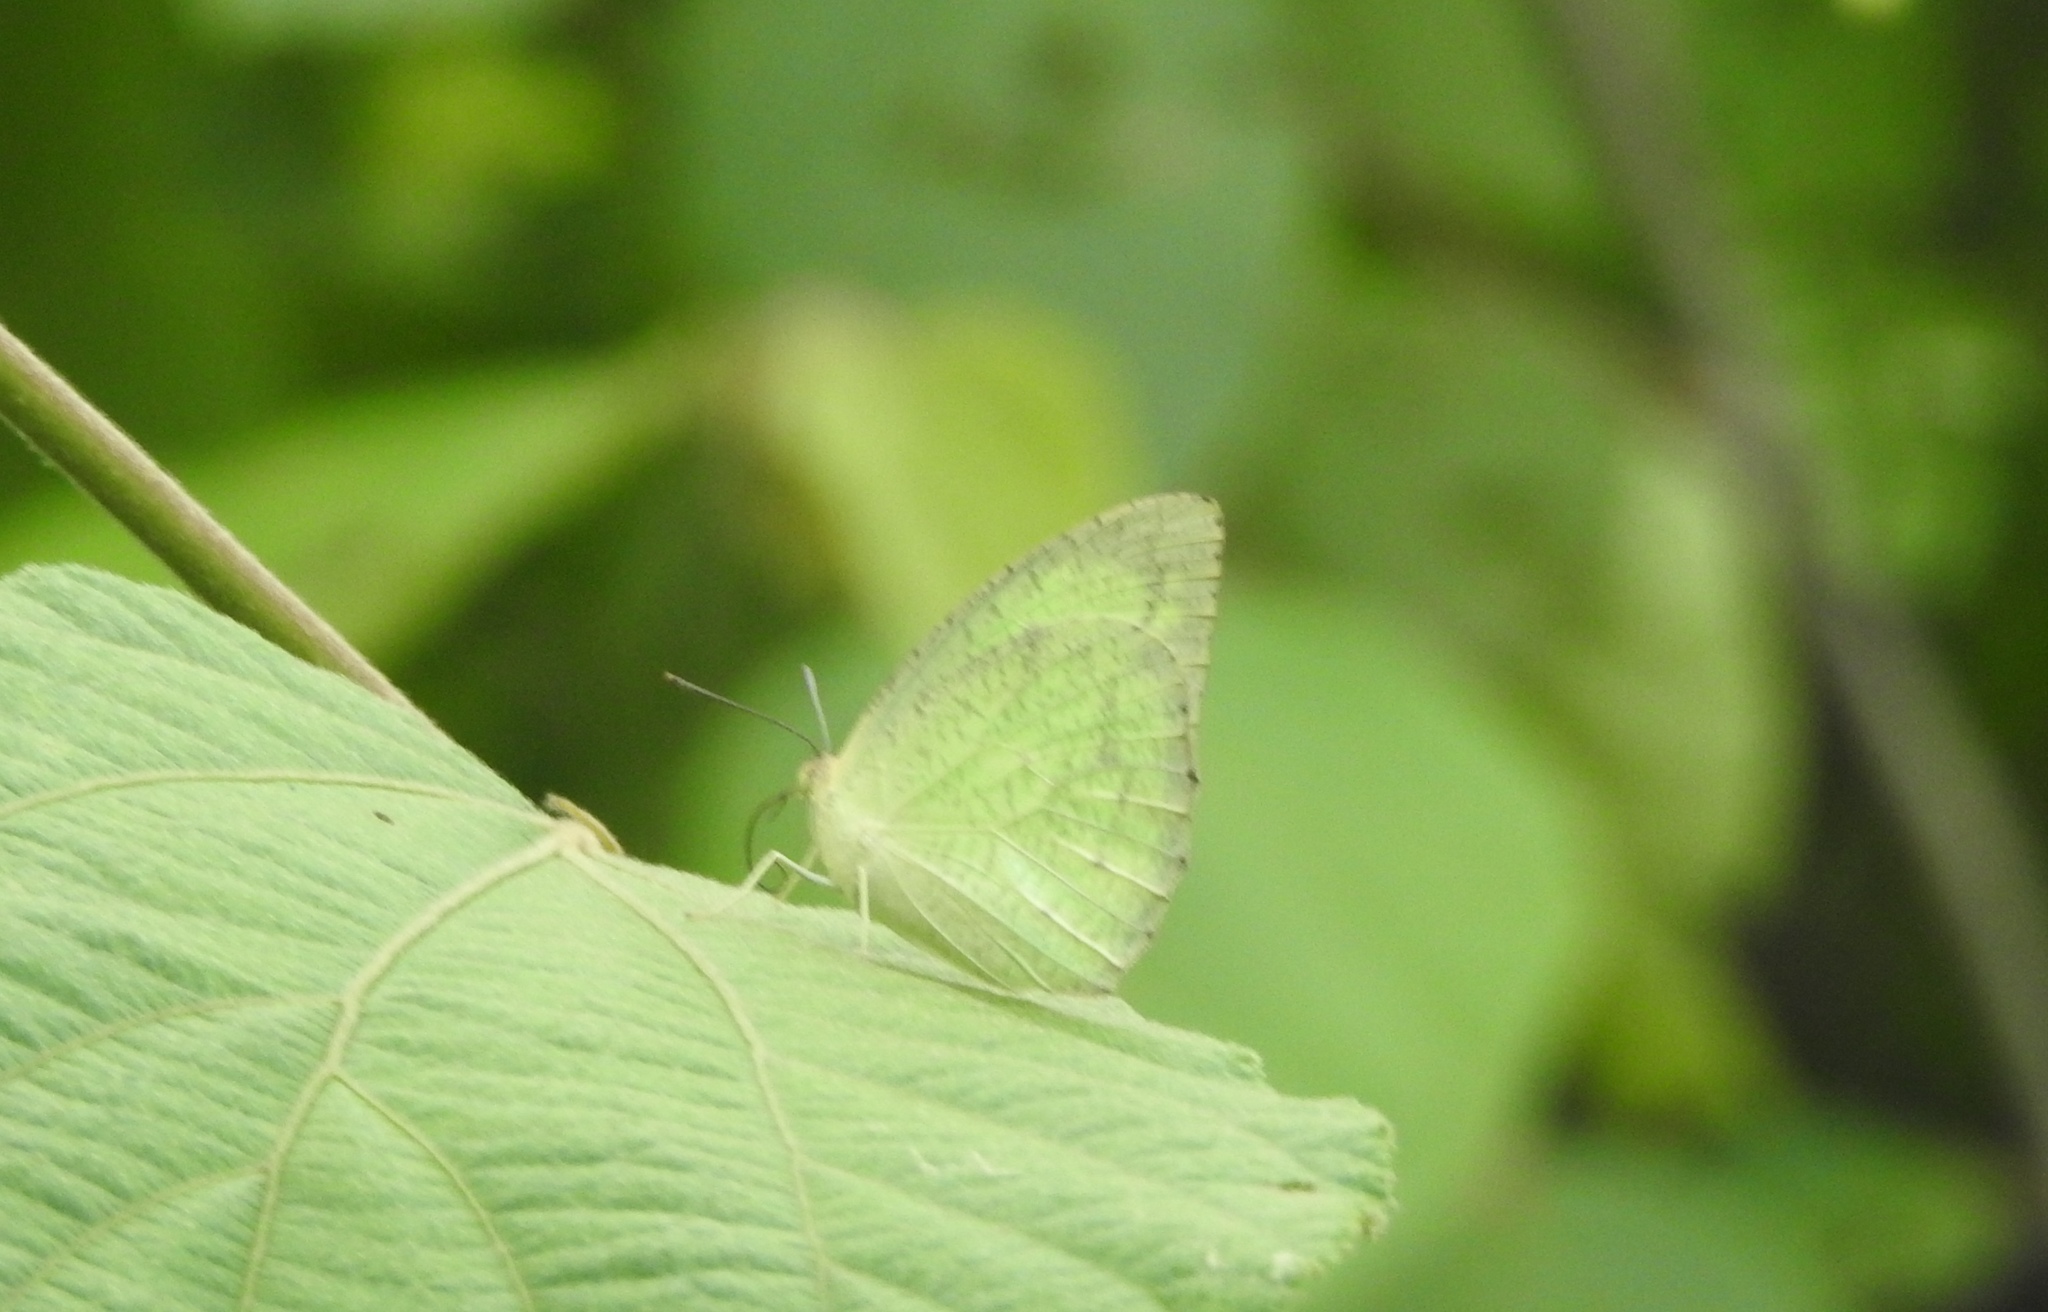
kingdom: Animalia
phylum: Arthropoda
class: Insecta
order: Lepidoptera
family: Pieridae
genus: Catopsilia
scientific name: Catopsilia pyranthe
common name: Mottled emigrant
